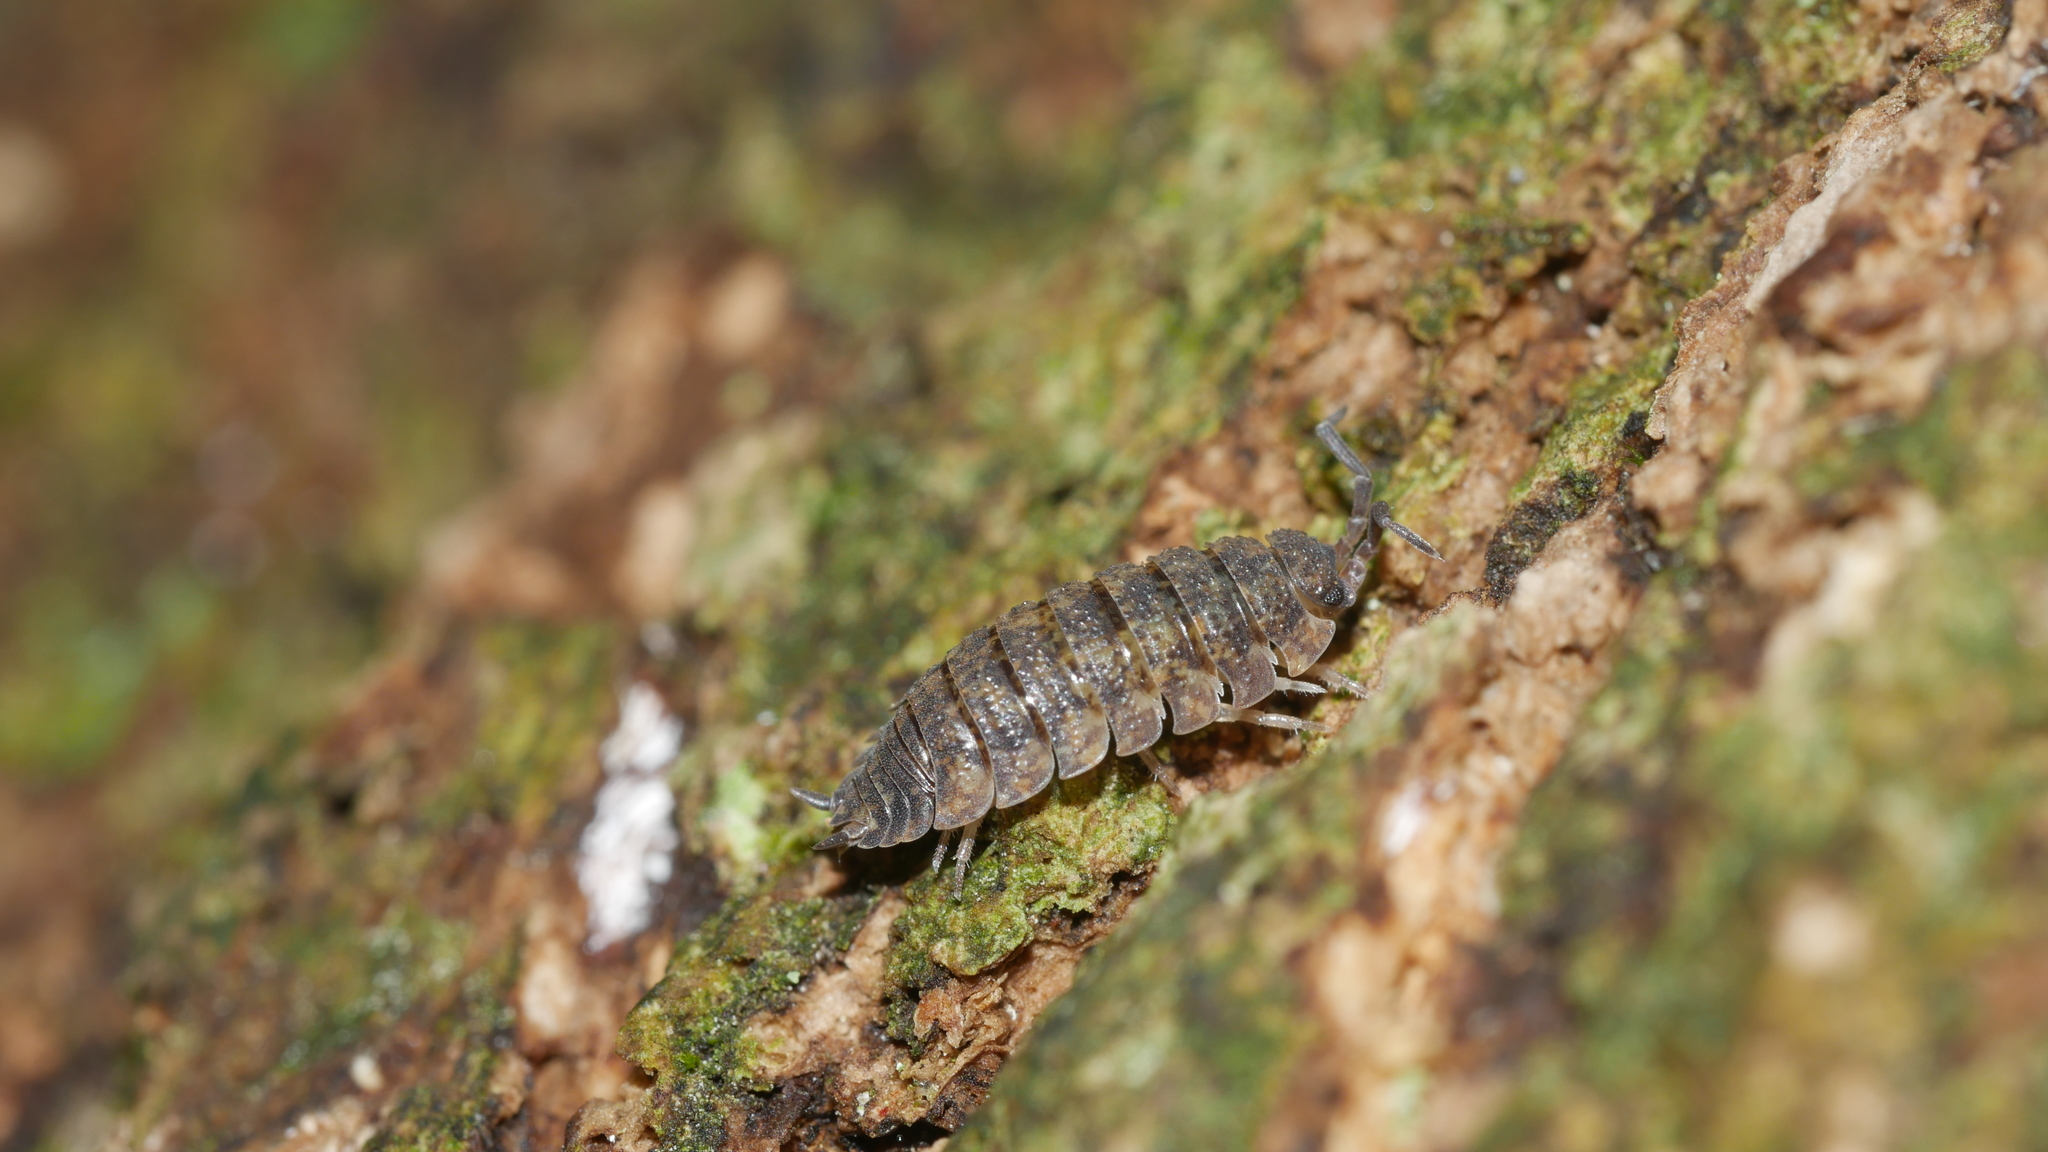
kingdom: Animalia
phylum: Arthropoda
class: Malacostraca
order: Isopoda
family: Porcellionidae
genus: Porcellio
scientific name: Porcellio scaber
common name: Common rough woodlouse
